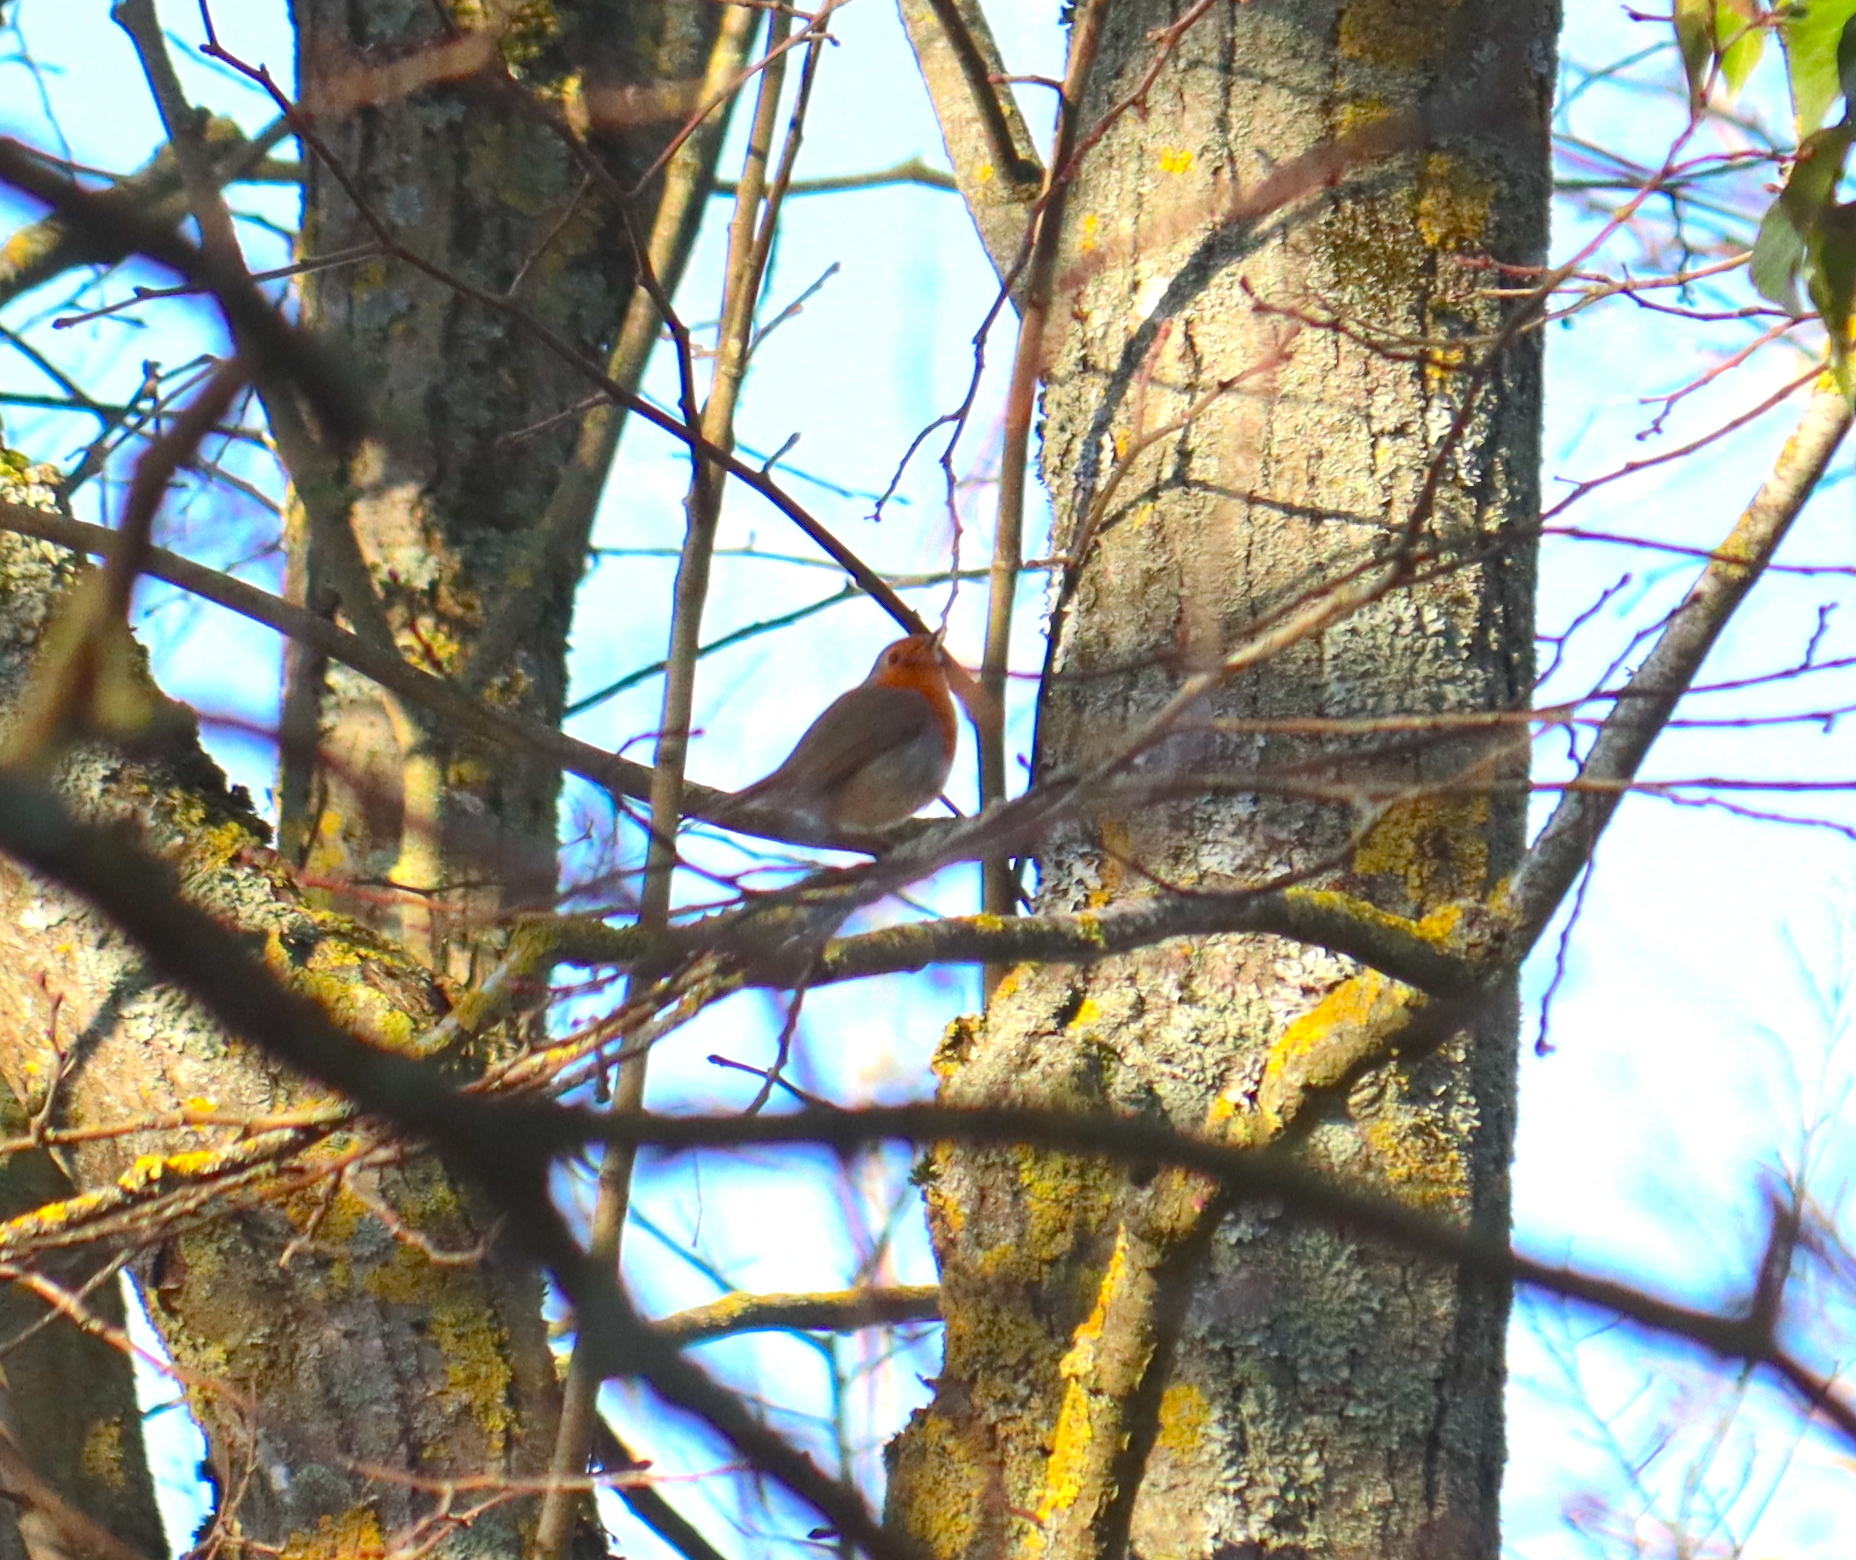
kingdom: Animalia
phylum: Chordata
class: Aves
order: Passeriformes
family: Muscicapidae
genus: Erithacus
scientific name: Erithacus rubecula
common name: European robin
